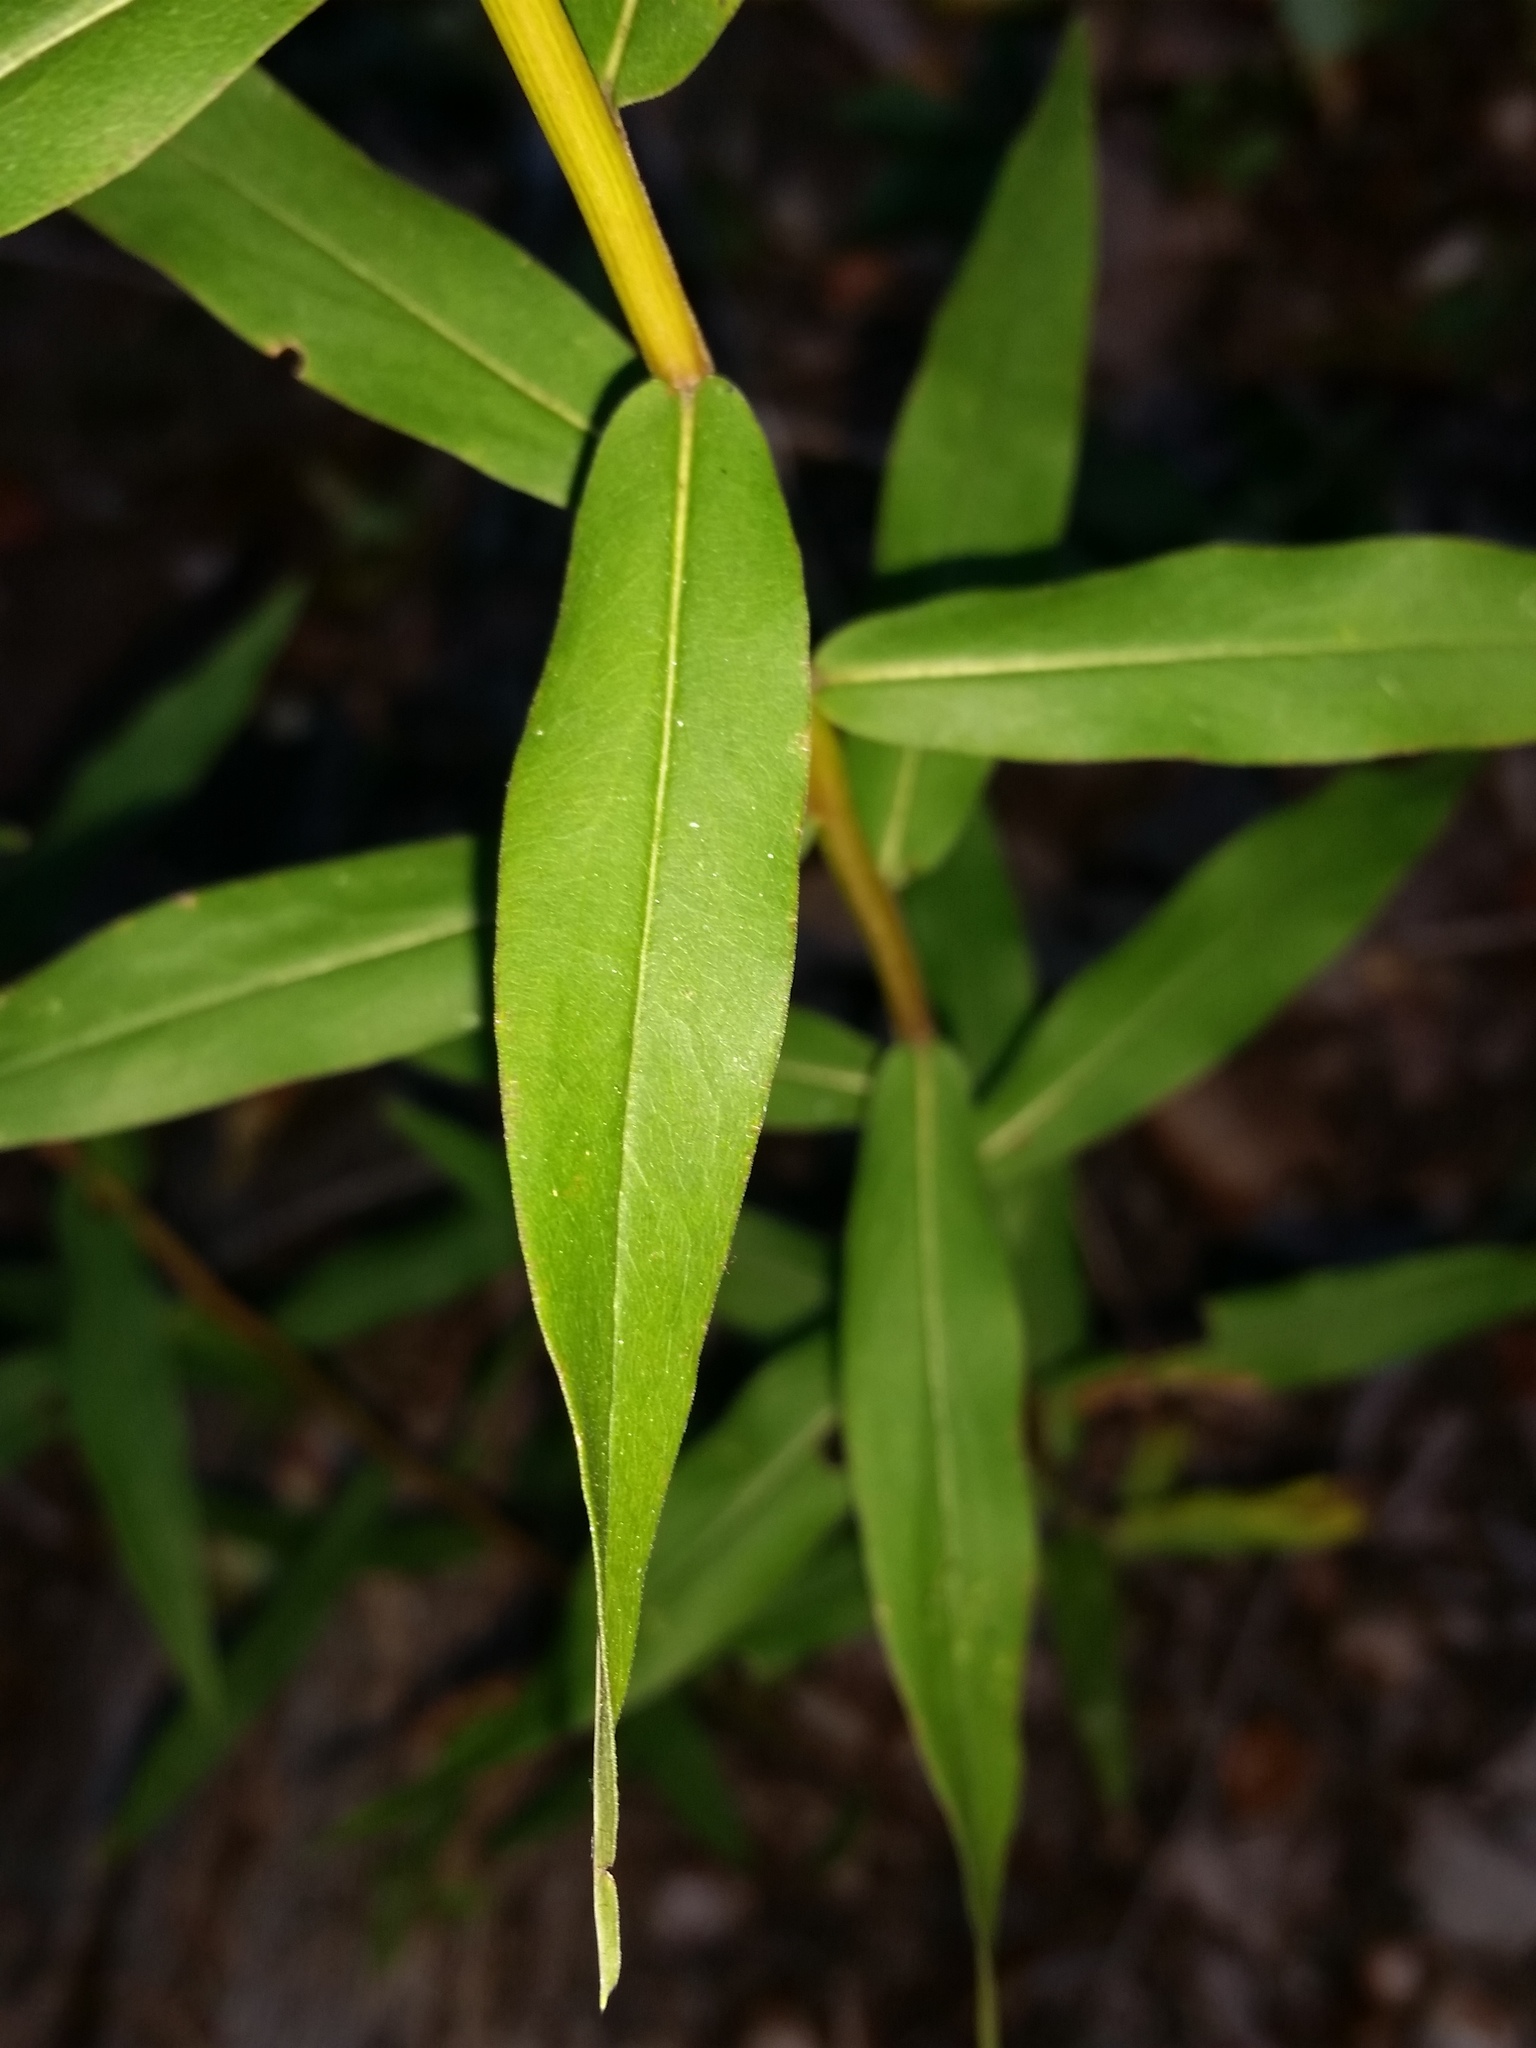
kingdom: Plantae
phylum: Tracheophyta
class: Magnoliopsida
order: Asterales
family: Asteraceae
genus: Solidago
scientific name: Solidago odora
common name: Anise-scented goldenrod
